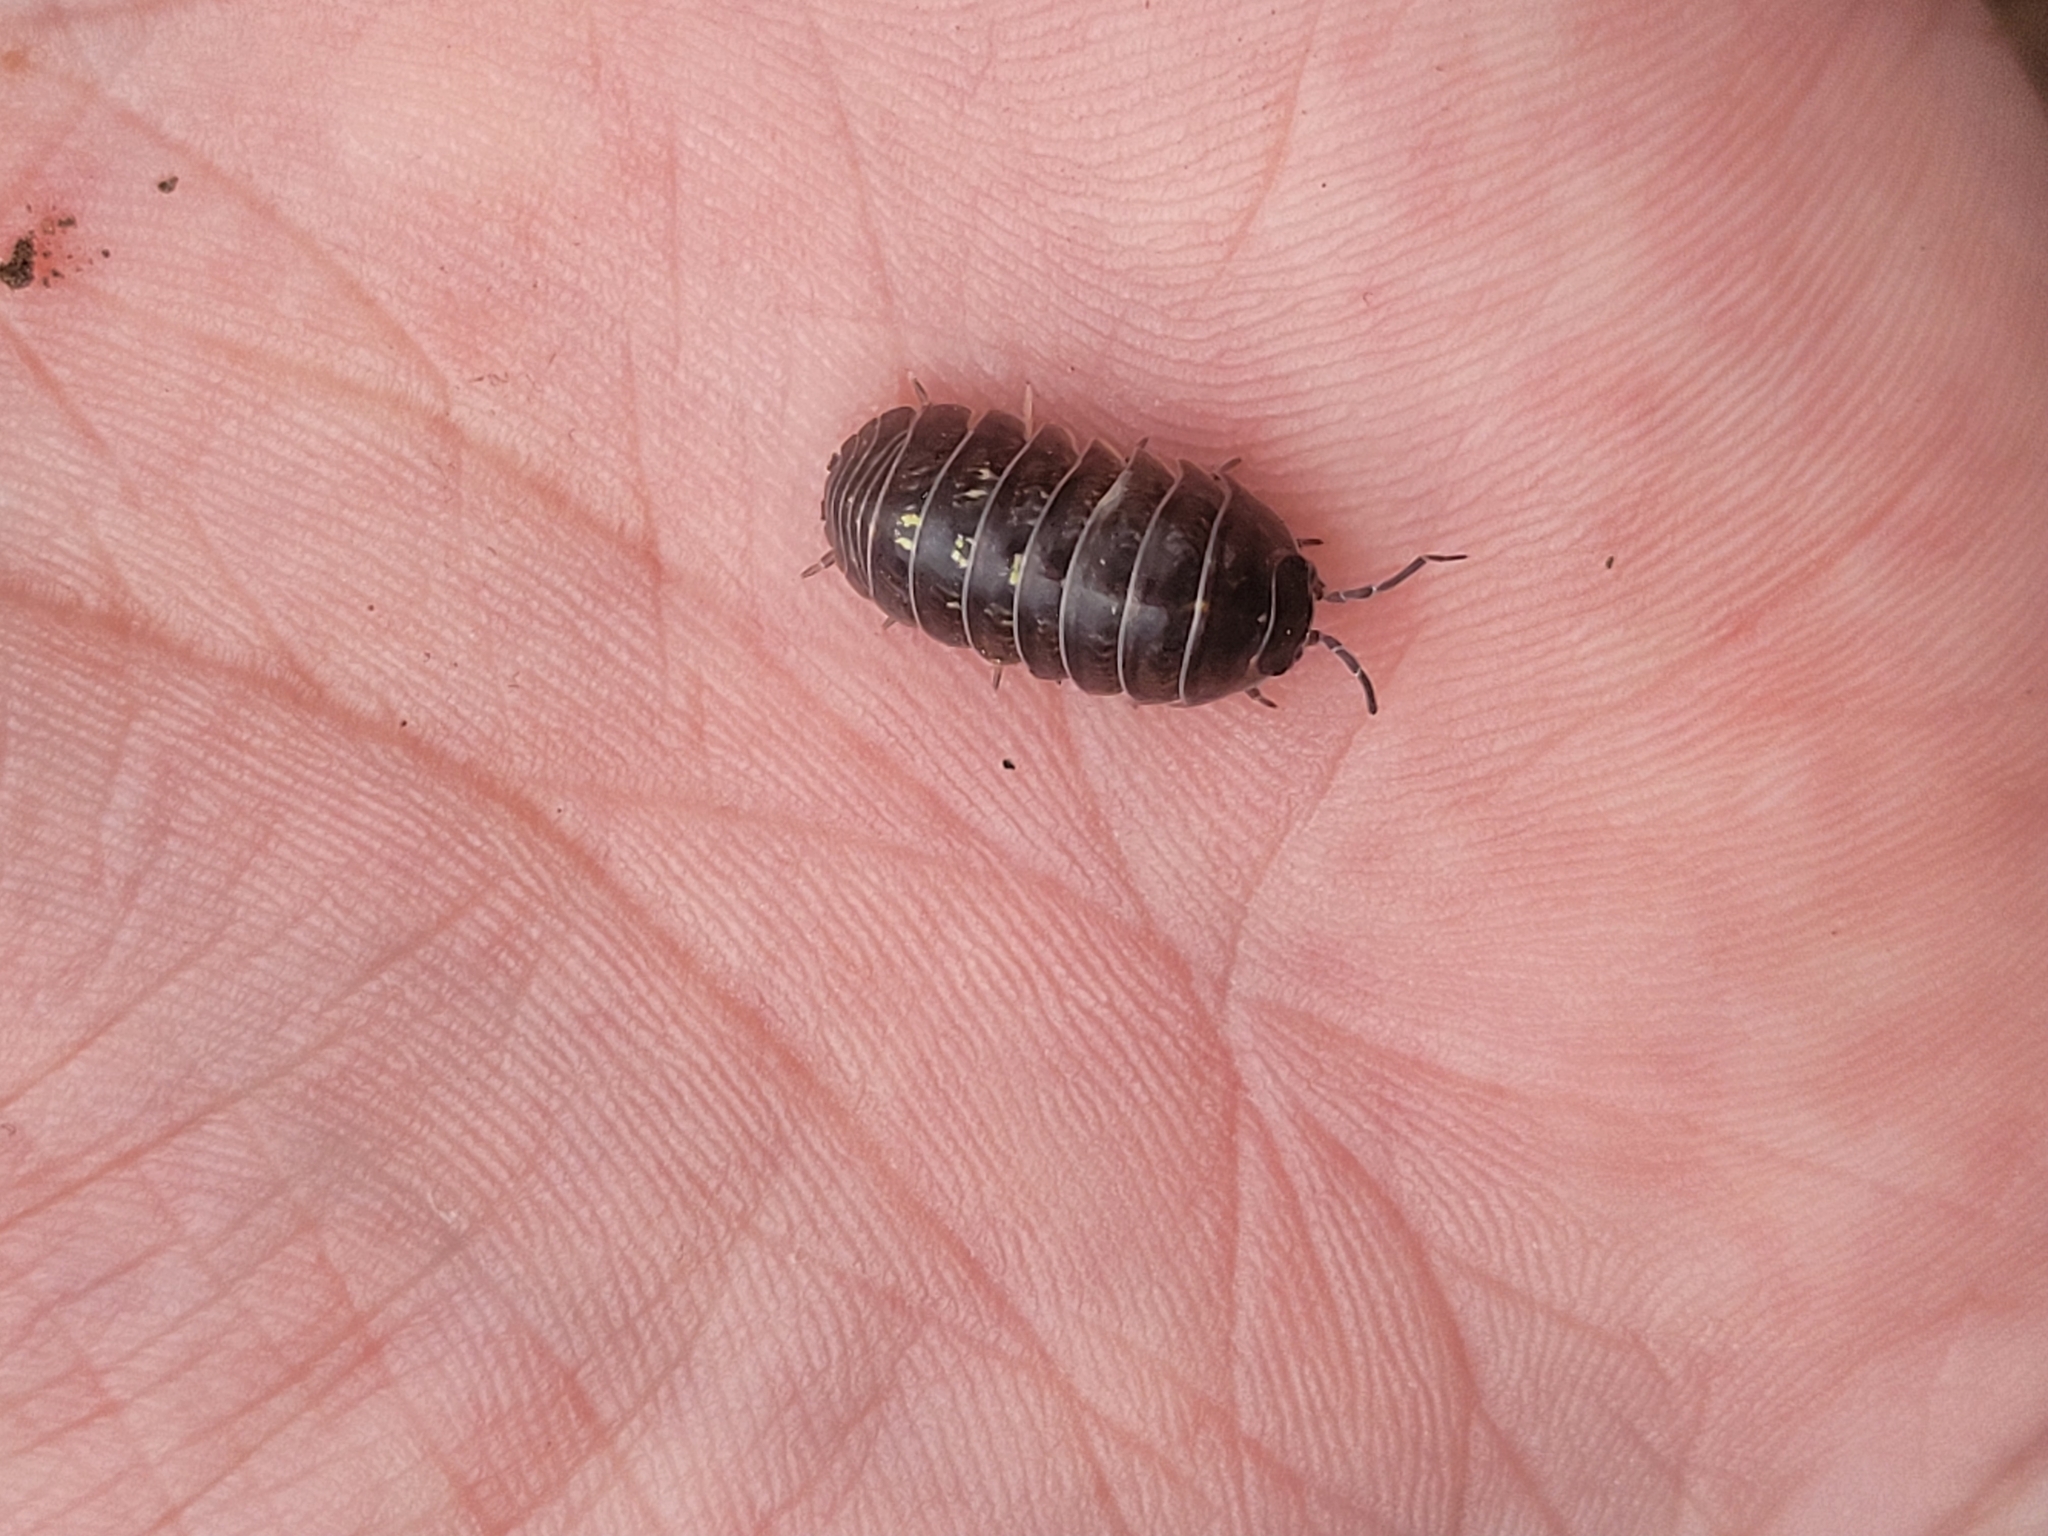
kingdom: Animalia
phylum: Arthropoda
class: Malacostraca
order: Isopoda
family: Armadillidiidae
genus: Armadillidium
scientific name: Armadillidium vulgare
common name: Common pill woodlouse
